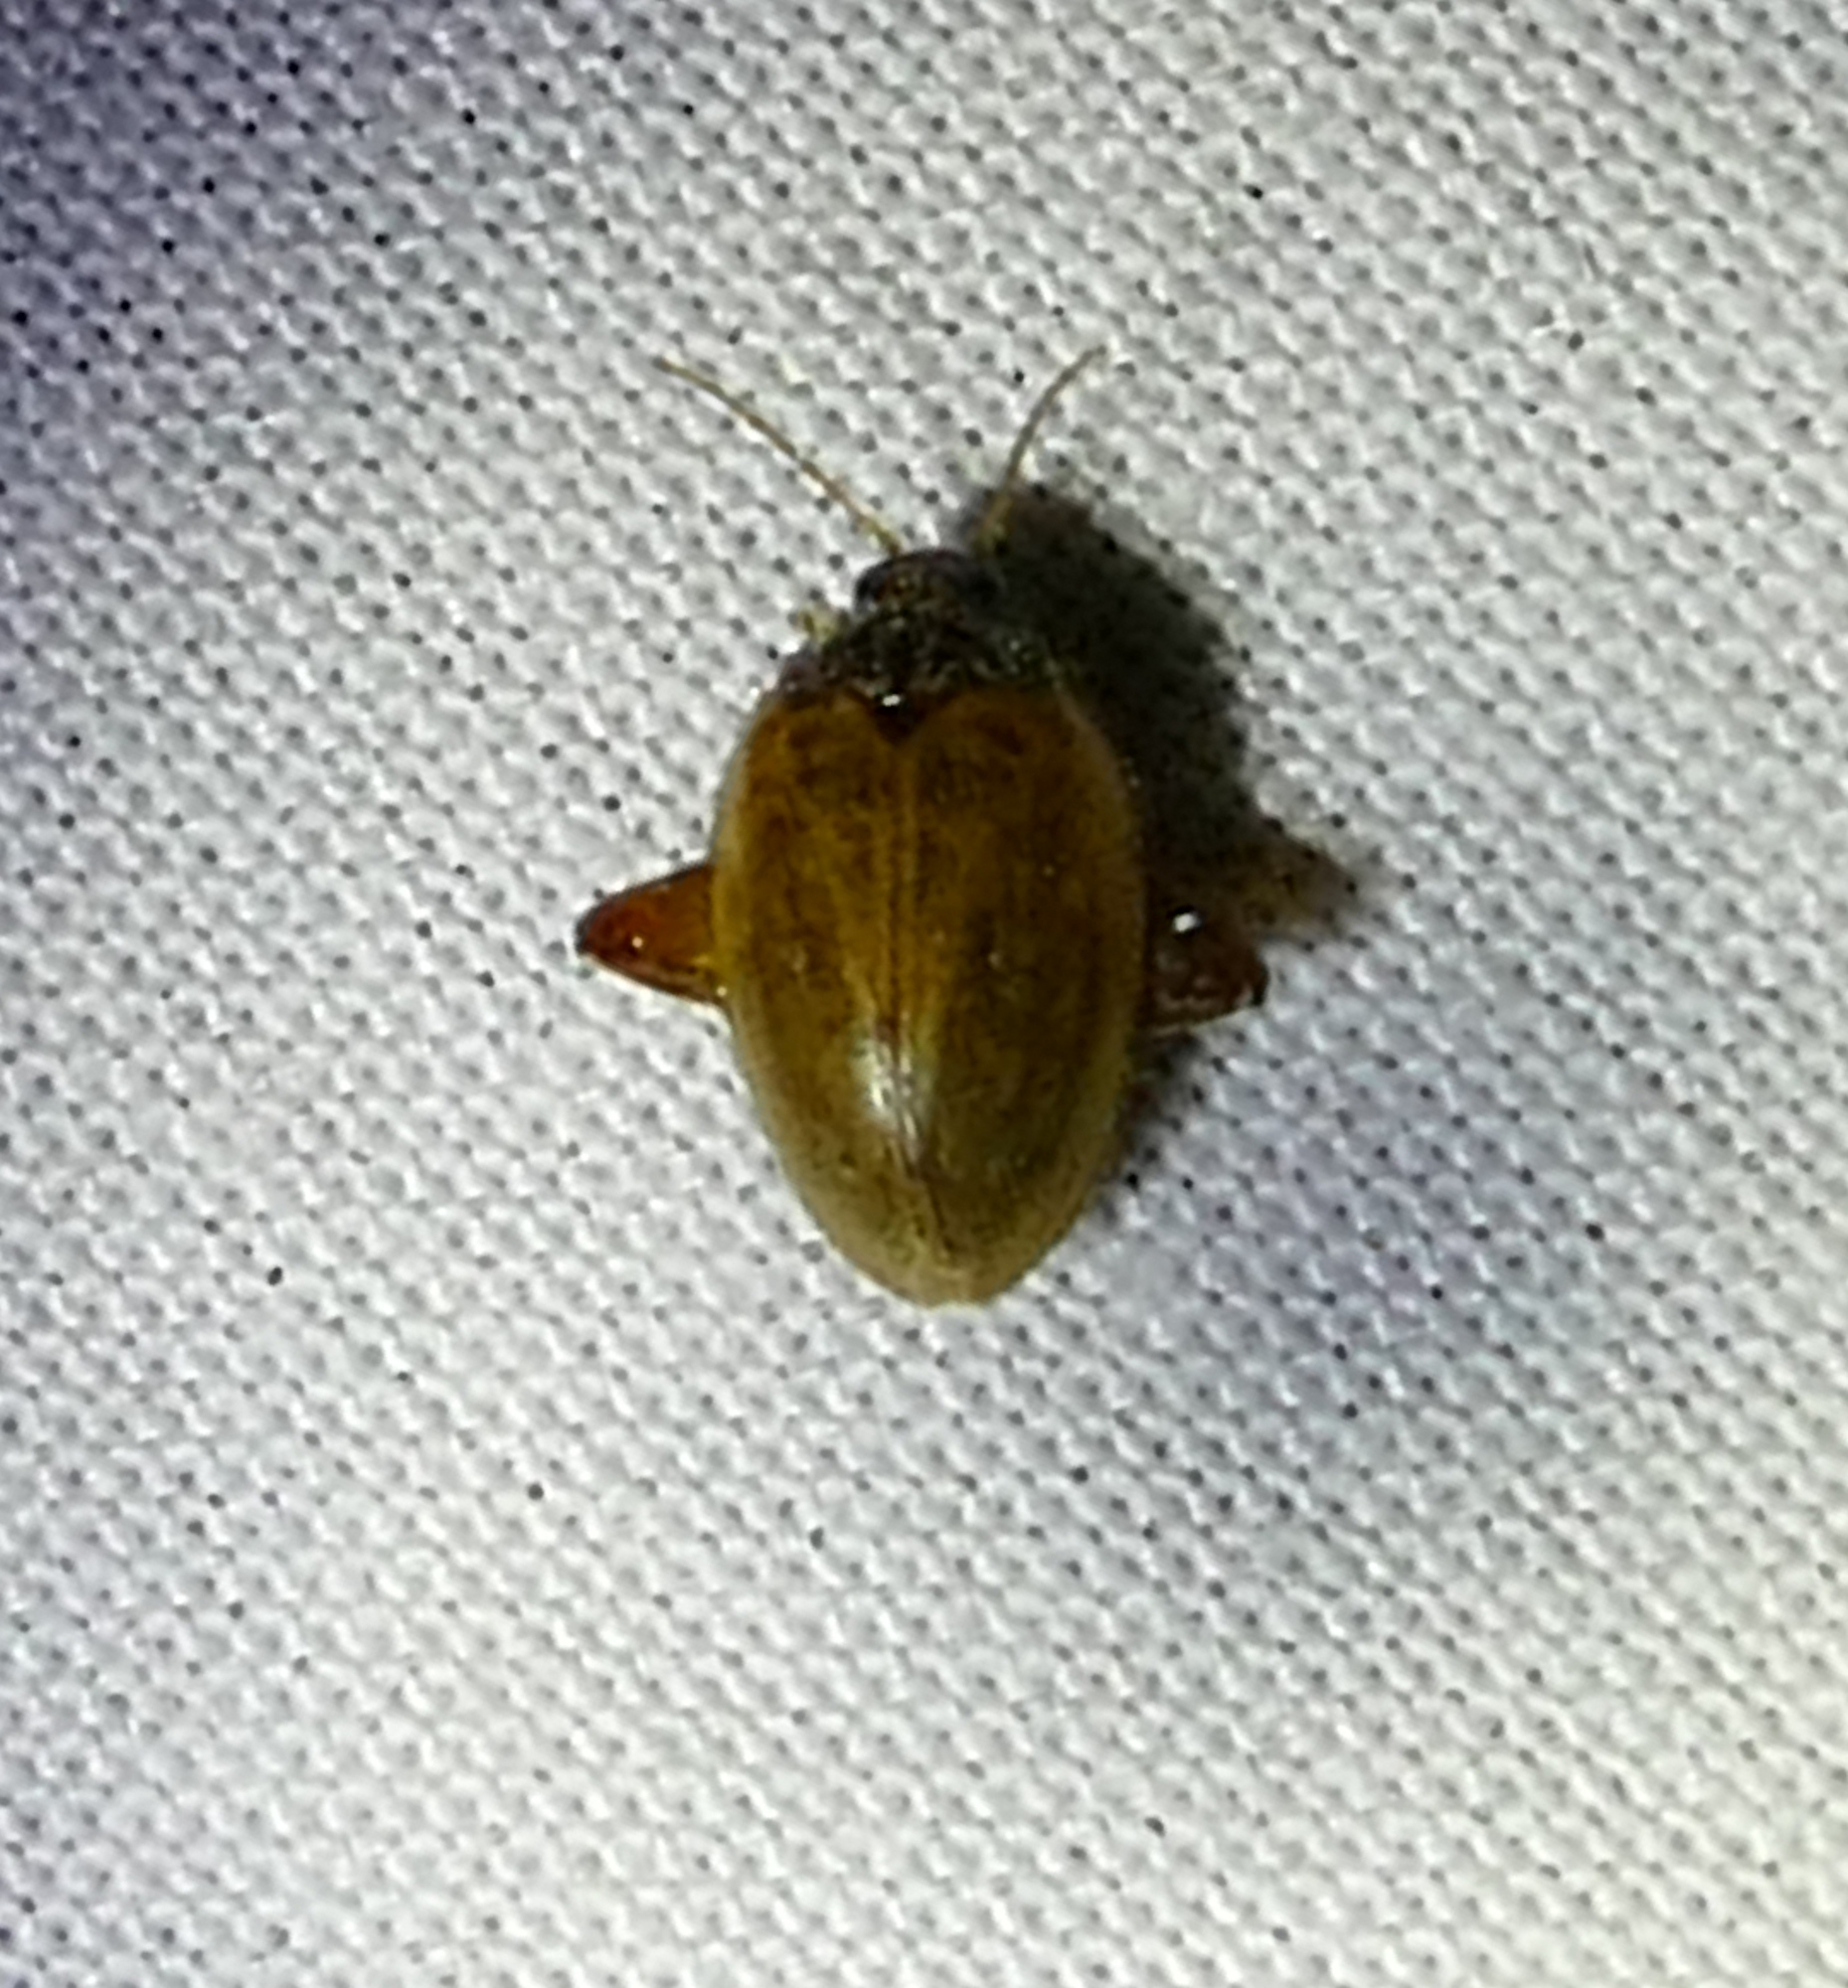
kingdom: Animalia
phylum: Arthropoda
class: Insecta
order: Coleoptera
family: Scirtidae
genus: Ora
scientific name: Ora discoidea
